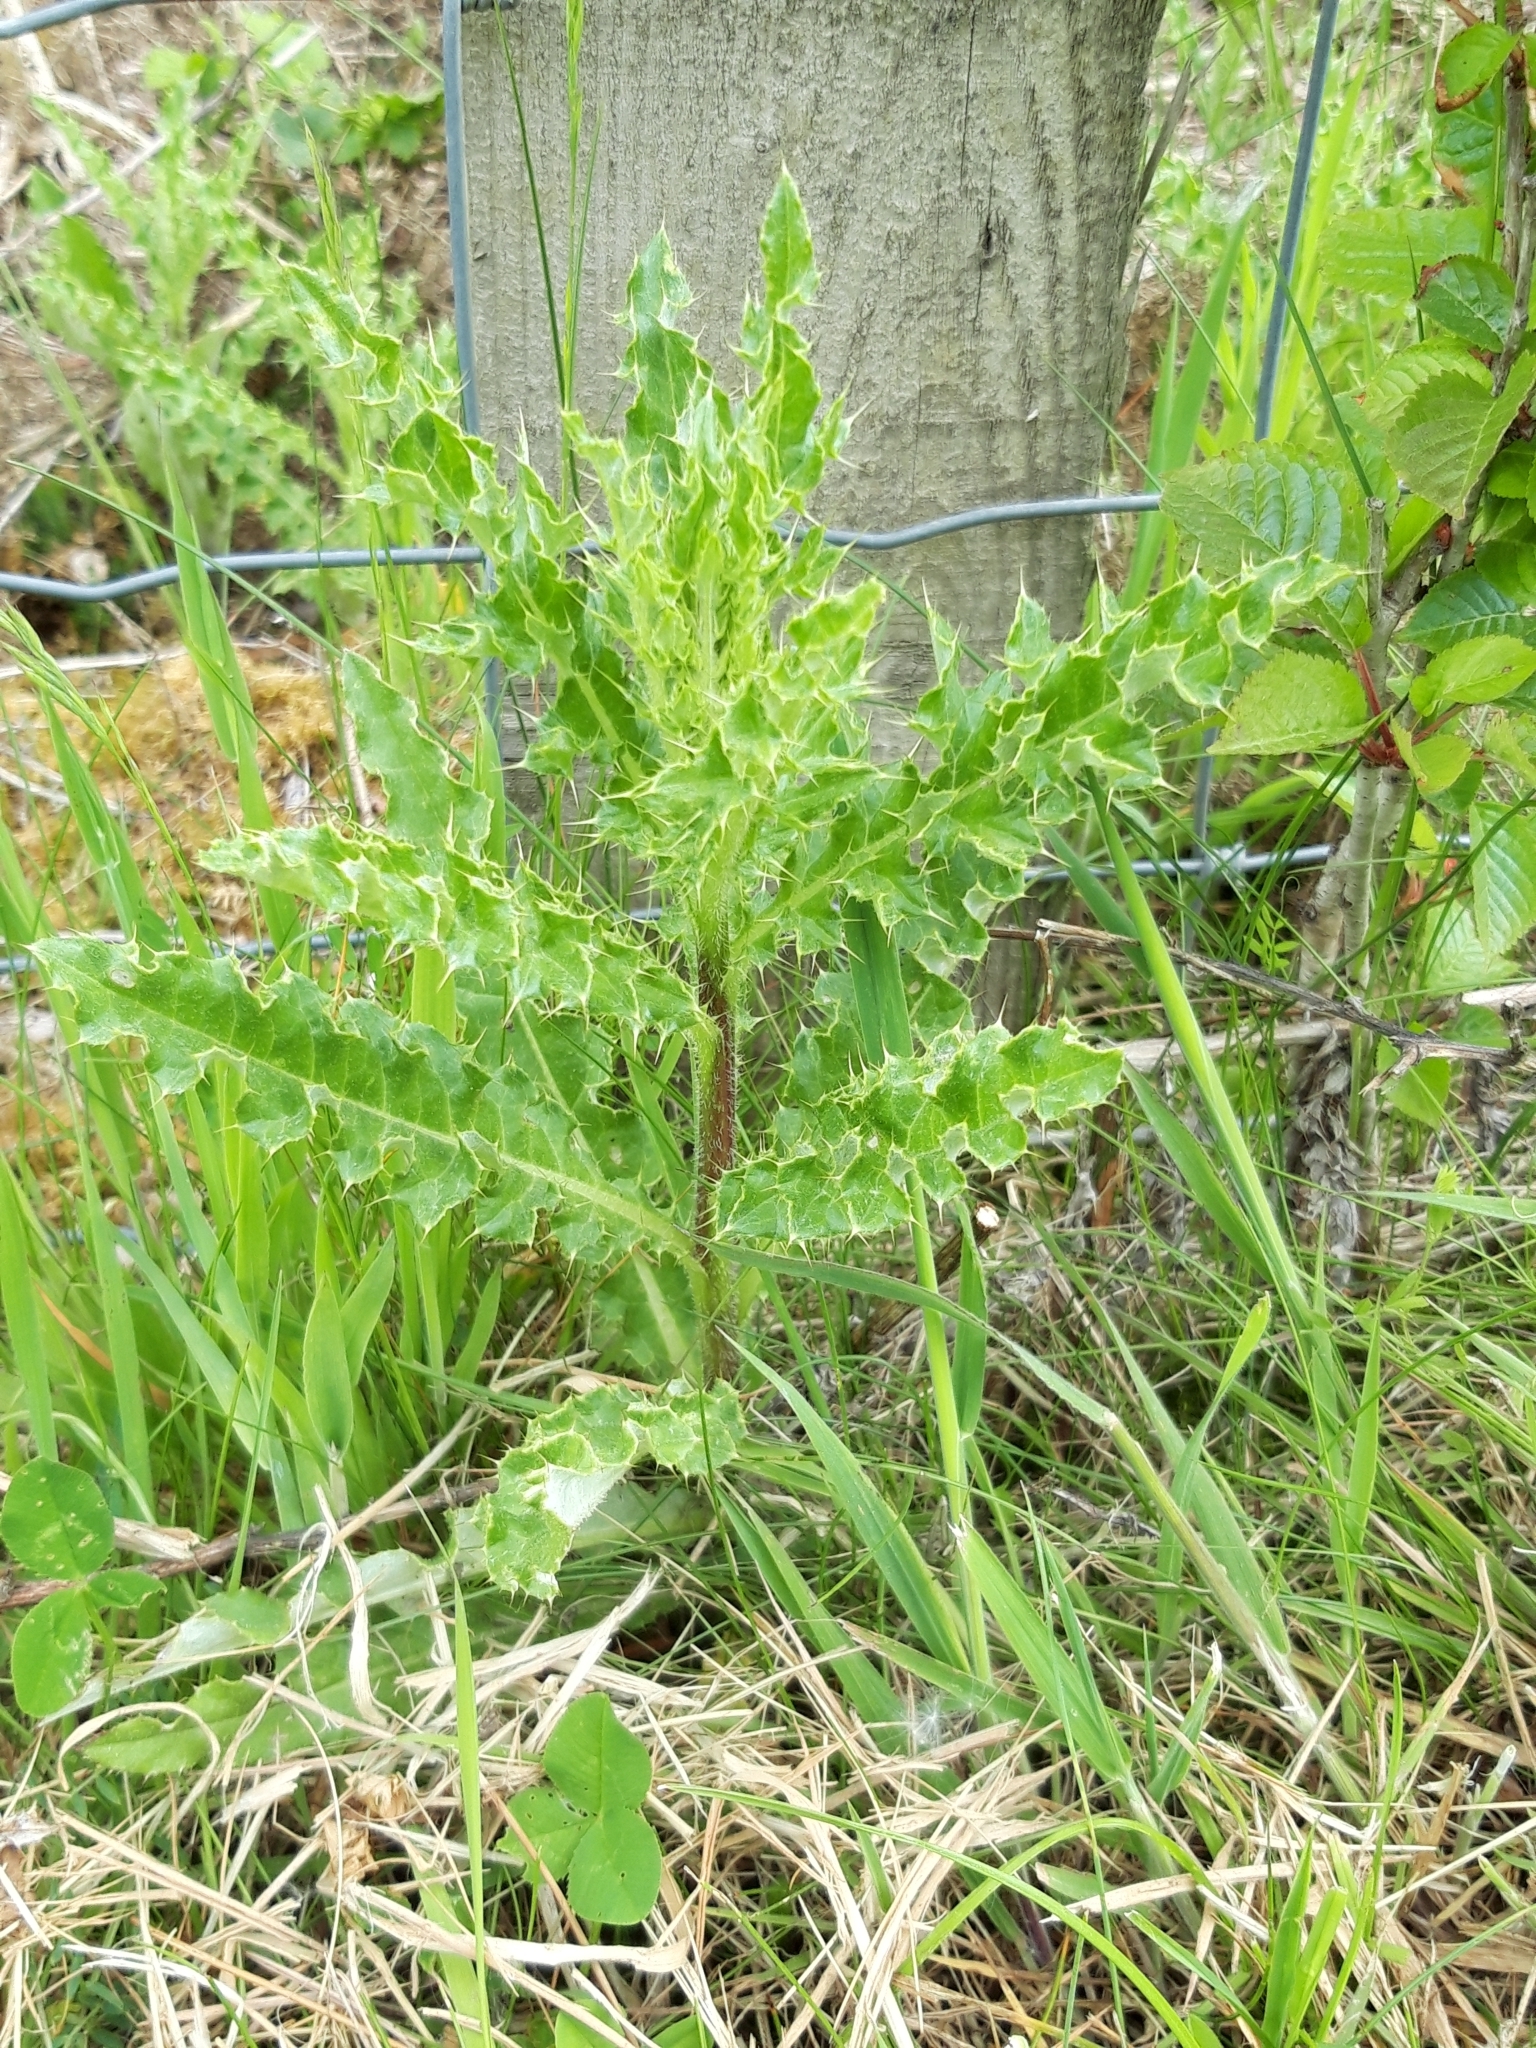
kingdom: Plantae
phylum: Tracheophyta
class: Magnoliopsida
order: Asterales
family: Asteraceae
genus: Cirsium
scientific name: Cirsium arvense
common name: Creeping thistle
